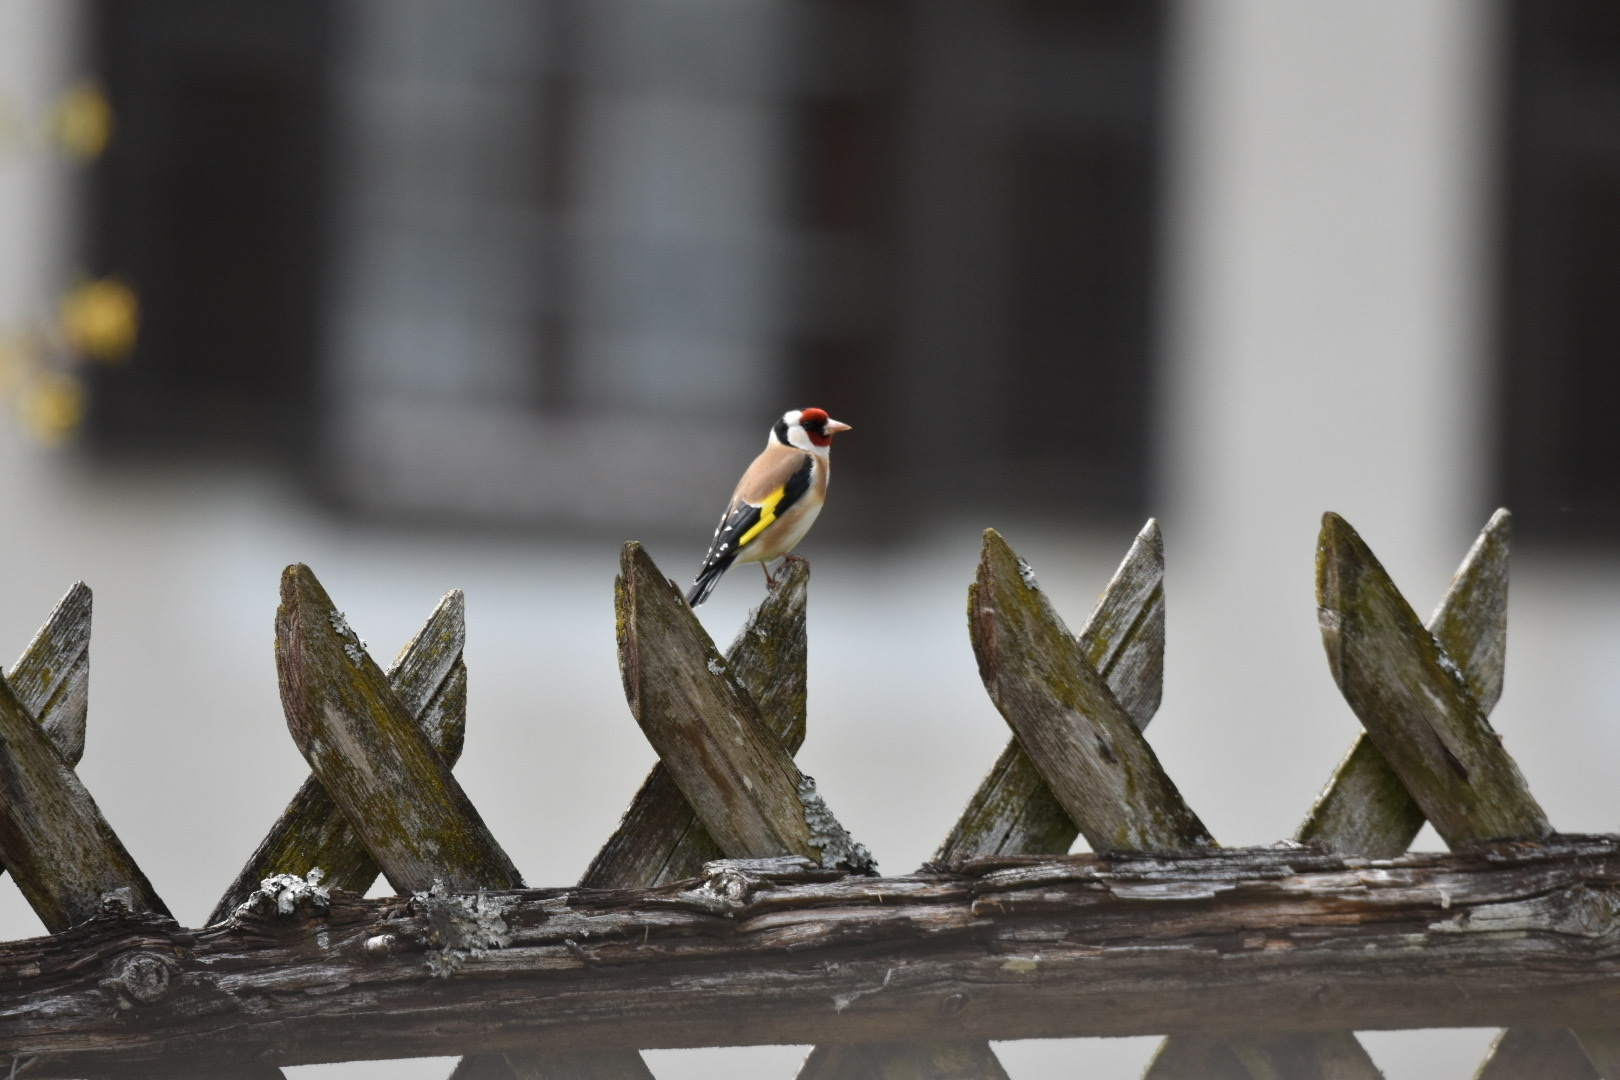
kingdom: Animalia
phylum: Chordata
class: Aves
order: Passeriformes
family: Fringillidae
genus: Carduelis
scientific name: Carduelis carduelis
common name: European goldfinch
